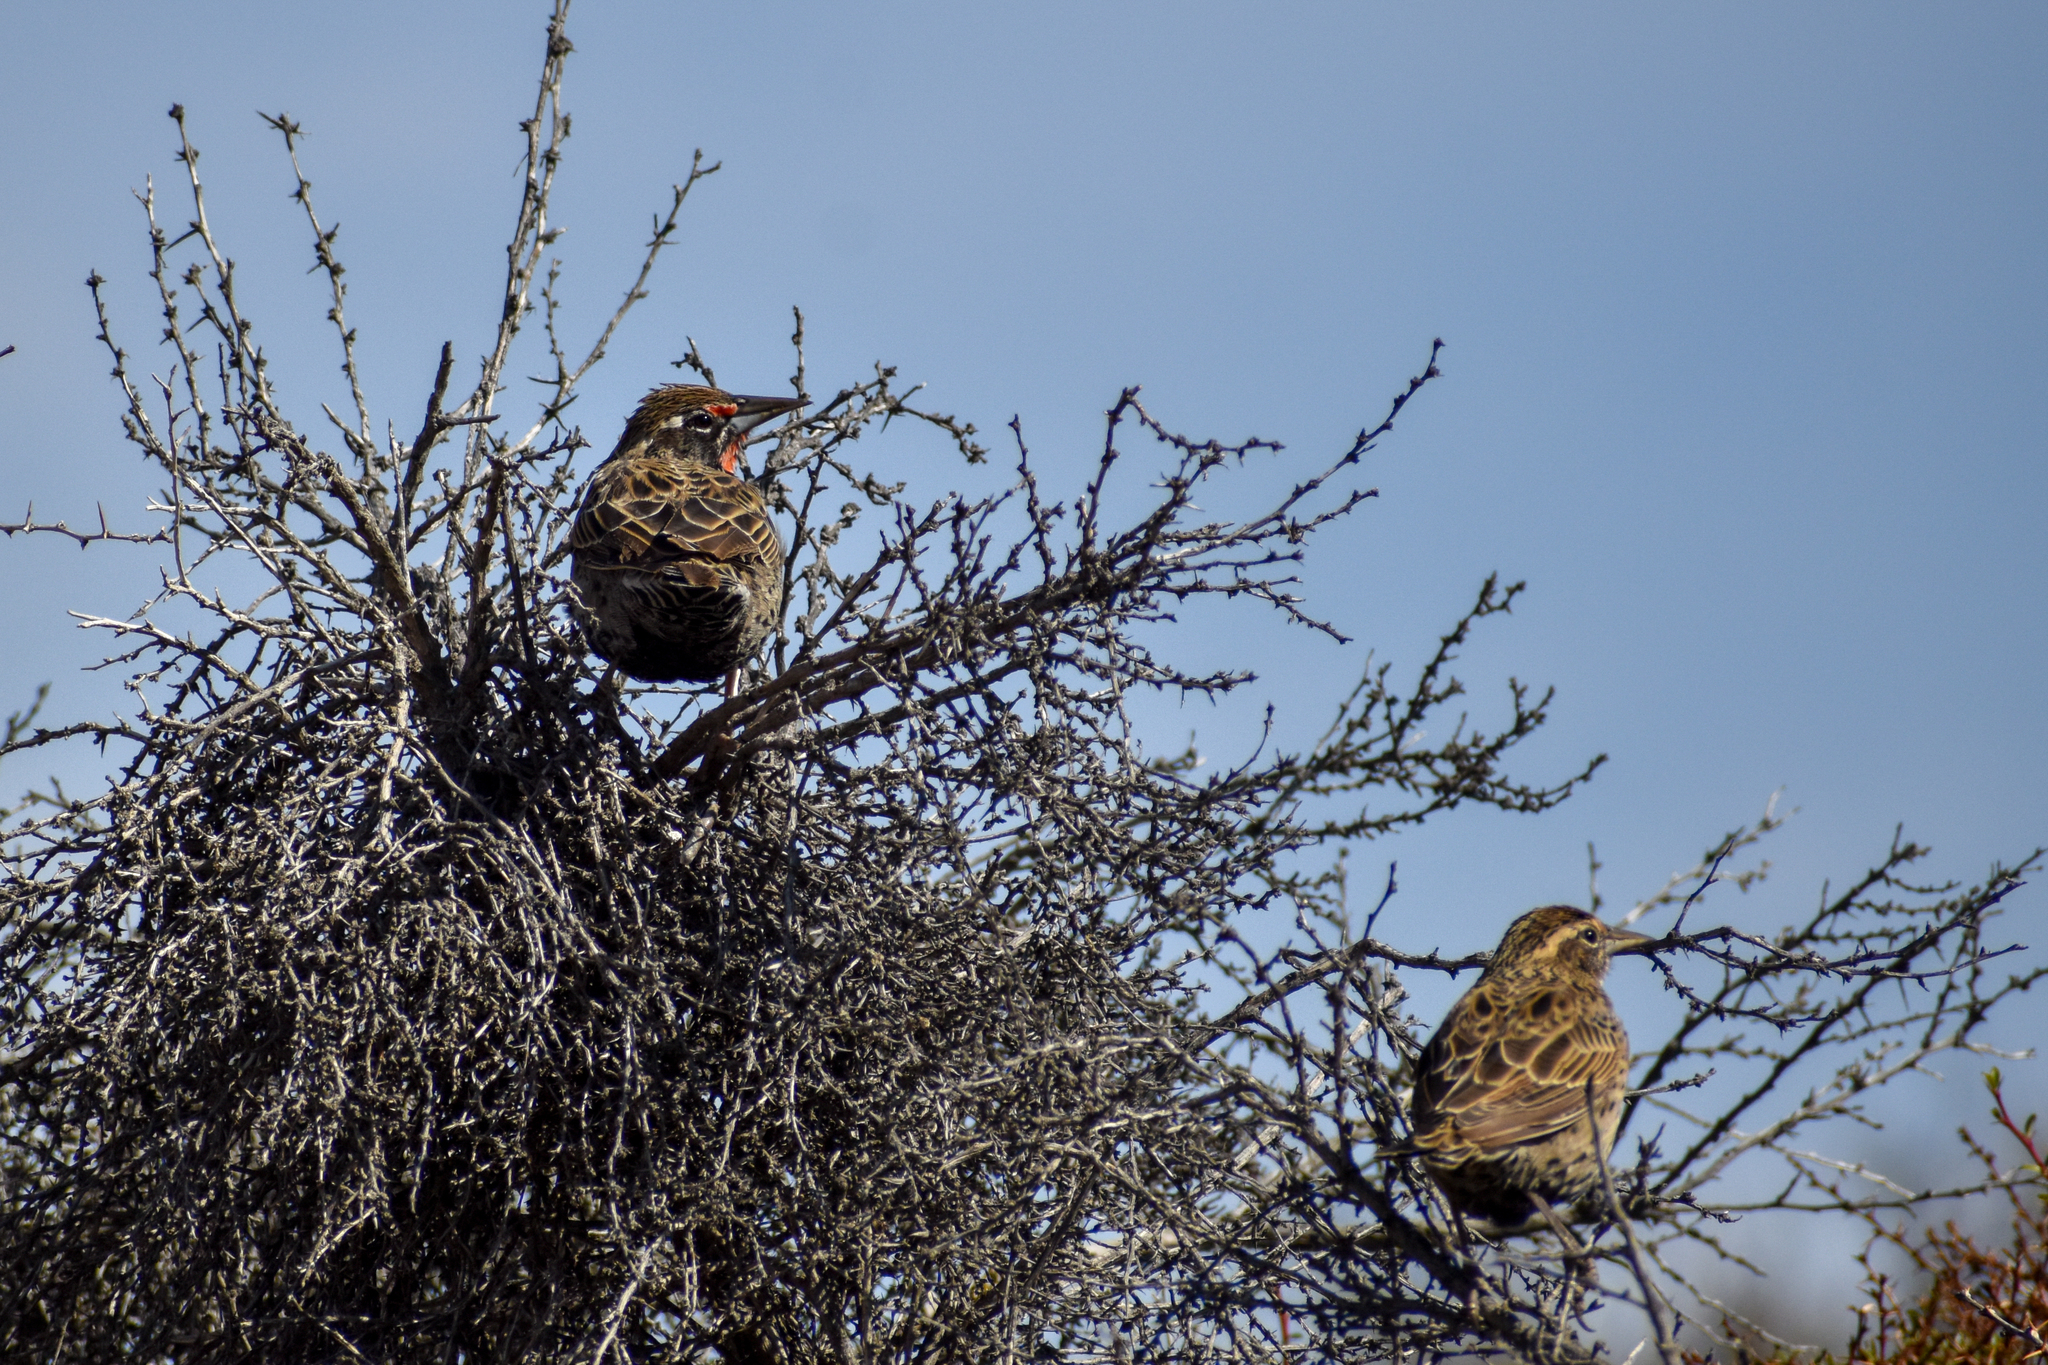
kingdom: Animalia
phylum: Chordata
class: Aves
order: Passeriformes
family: Icteridae
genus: Sturnella
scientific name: Sturnella loyca
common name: Long-tailed meadowlark
